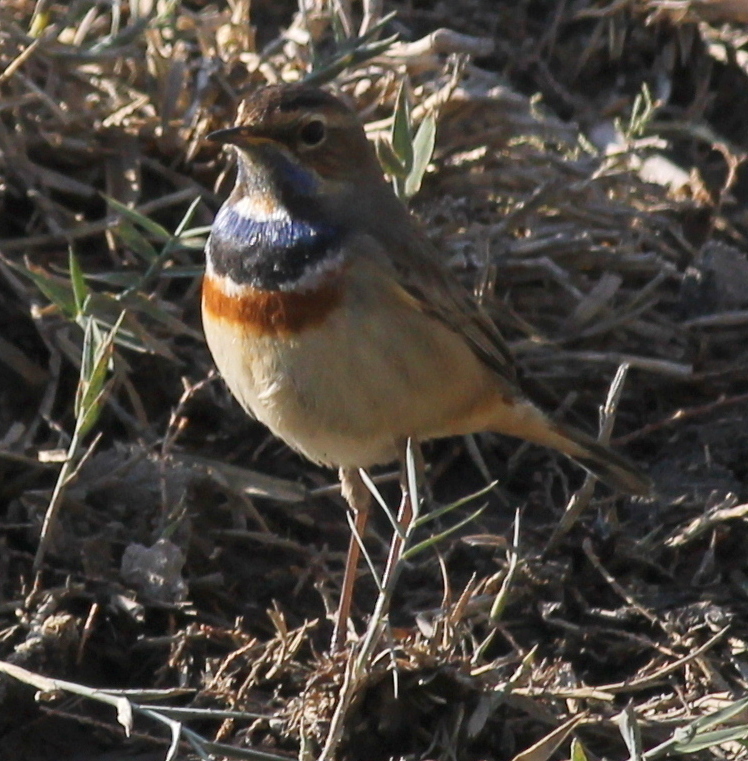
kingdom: Animalia
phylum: Chordata
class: Aves
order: Passeriformes
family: Muscicapidae
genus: Luscinia
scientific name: Luscinia svecica
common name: Bluethroat
